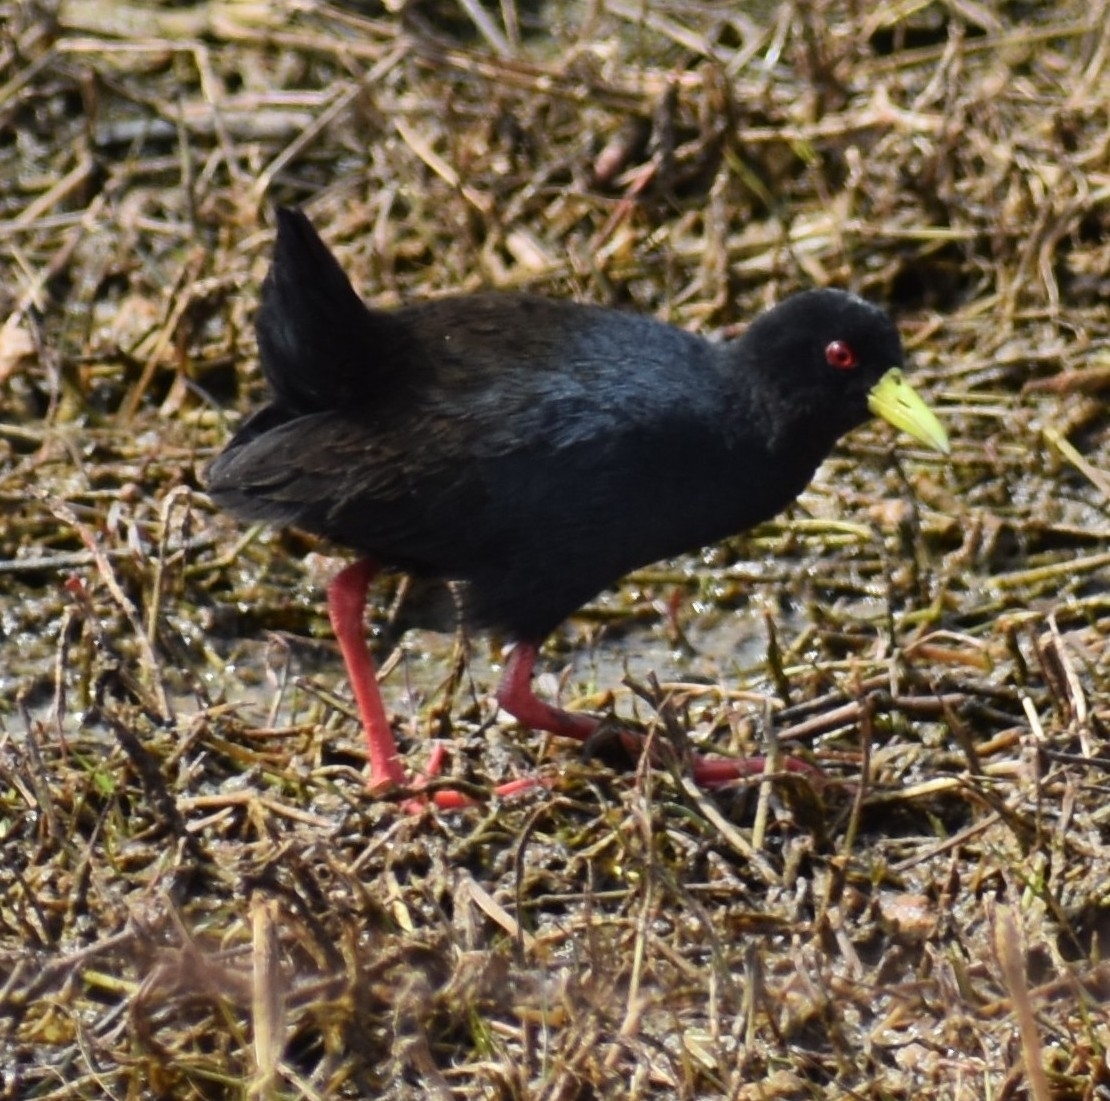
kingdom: Animalia
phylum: Chordata
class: Aves
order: Gruiformes
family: Rallidae
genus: Amaurornis
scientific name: Amaurornis flavirostra
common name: Black crake
